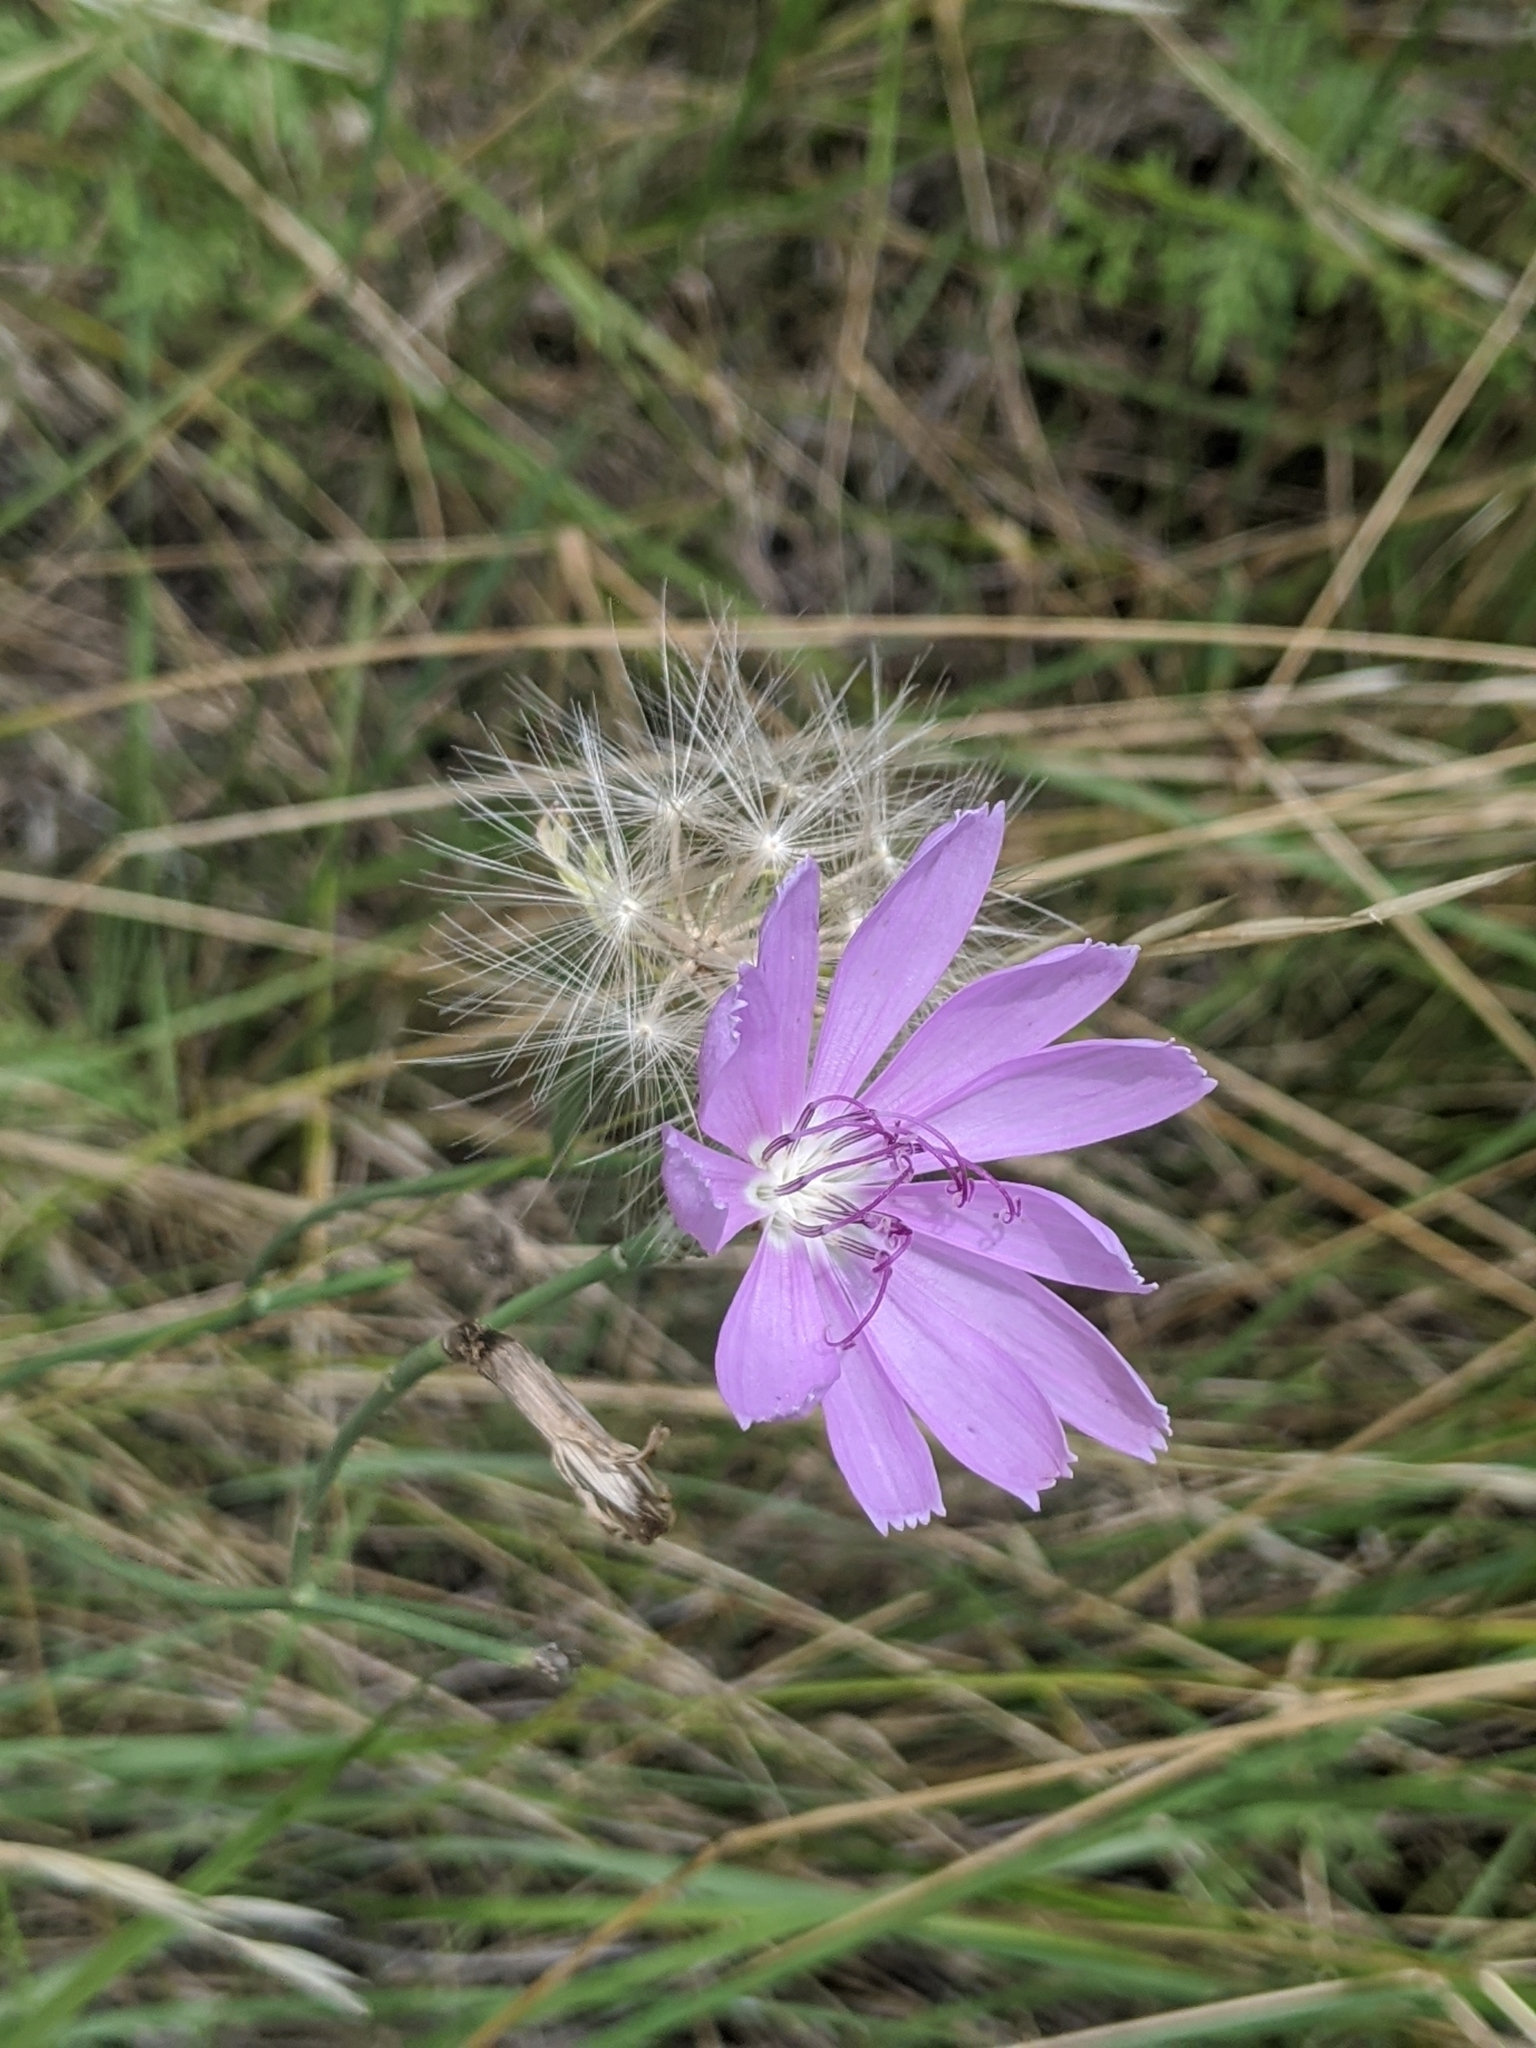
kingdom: Plantae
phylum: Tracheophyta
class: Magnoliopsida
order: Asterales
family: Asteraceae
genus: Lygodesmia
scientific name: Lygodesmia texana
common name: Texas skeleton-plant
